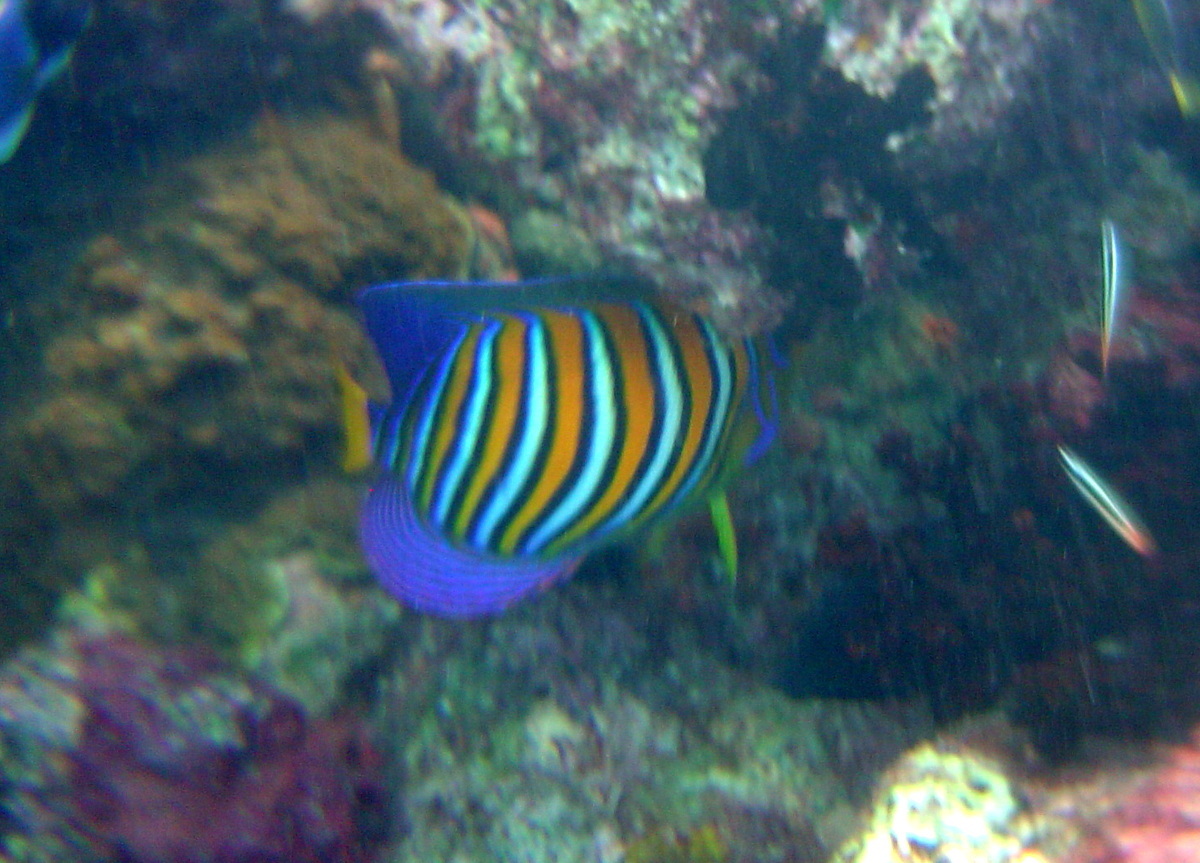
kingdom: Animalia
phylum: Chordata
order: Perciformes
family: Pomacanthidae
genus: Pygoplites
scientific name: Pygoplites diacanthus
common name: Regal angelfish
